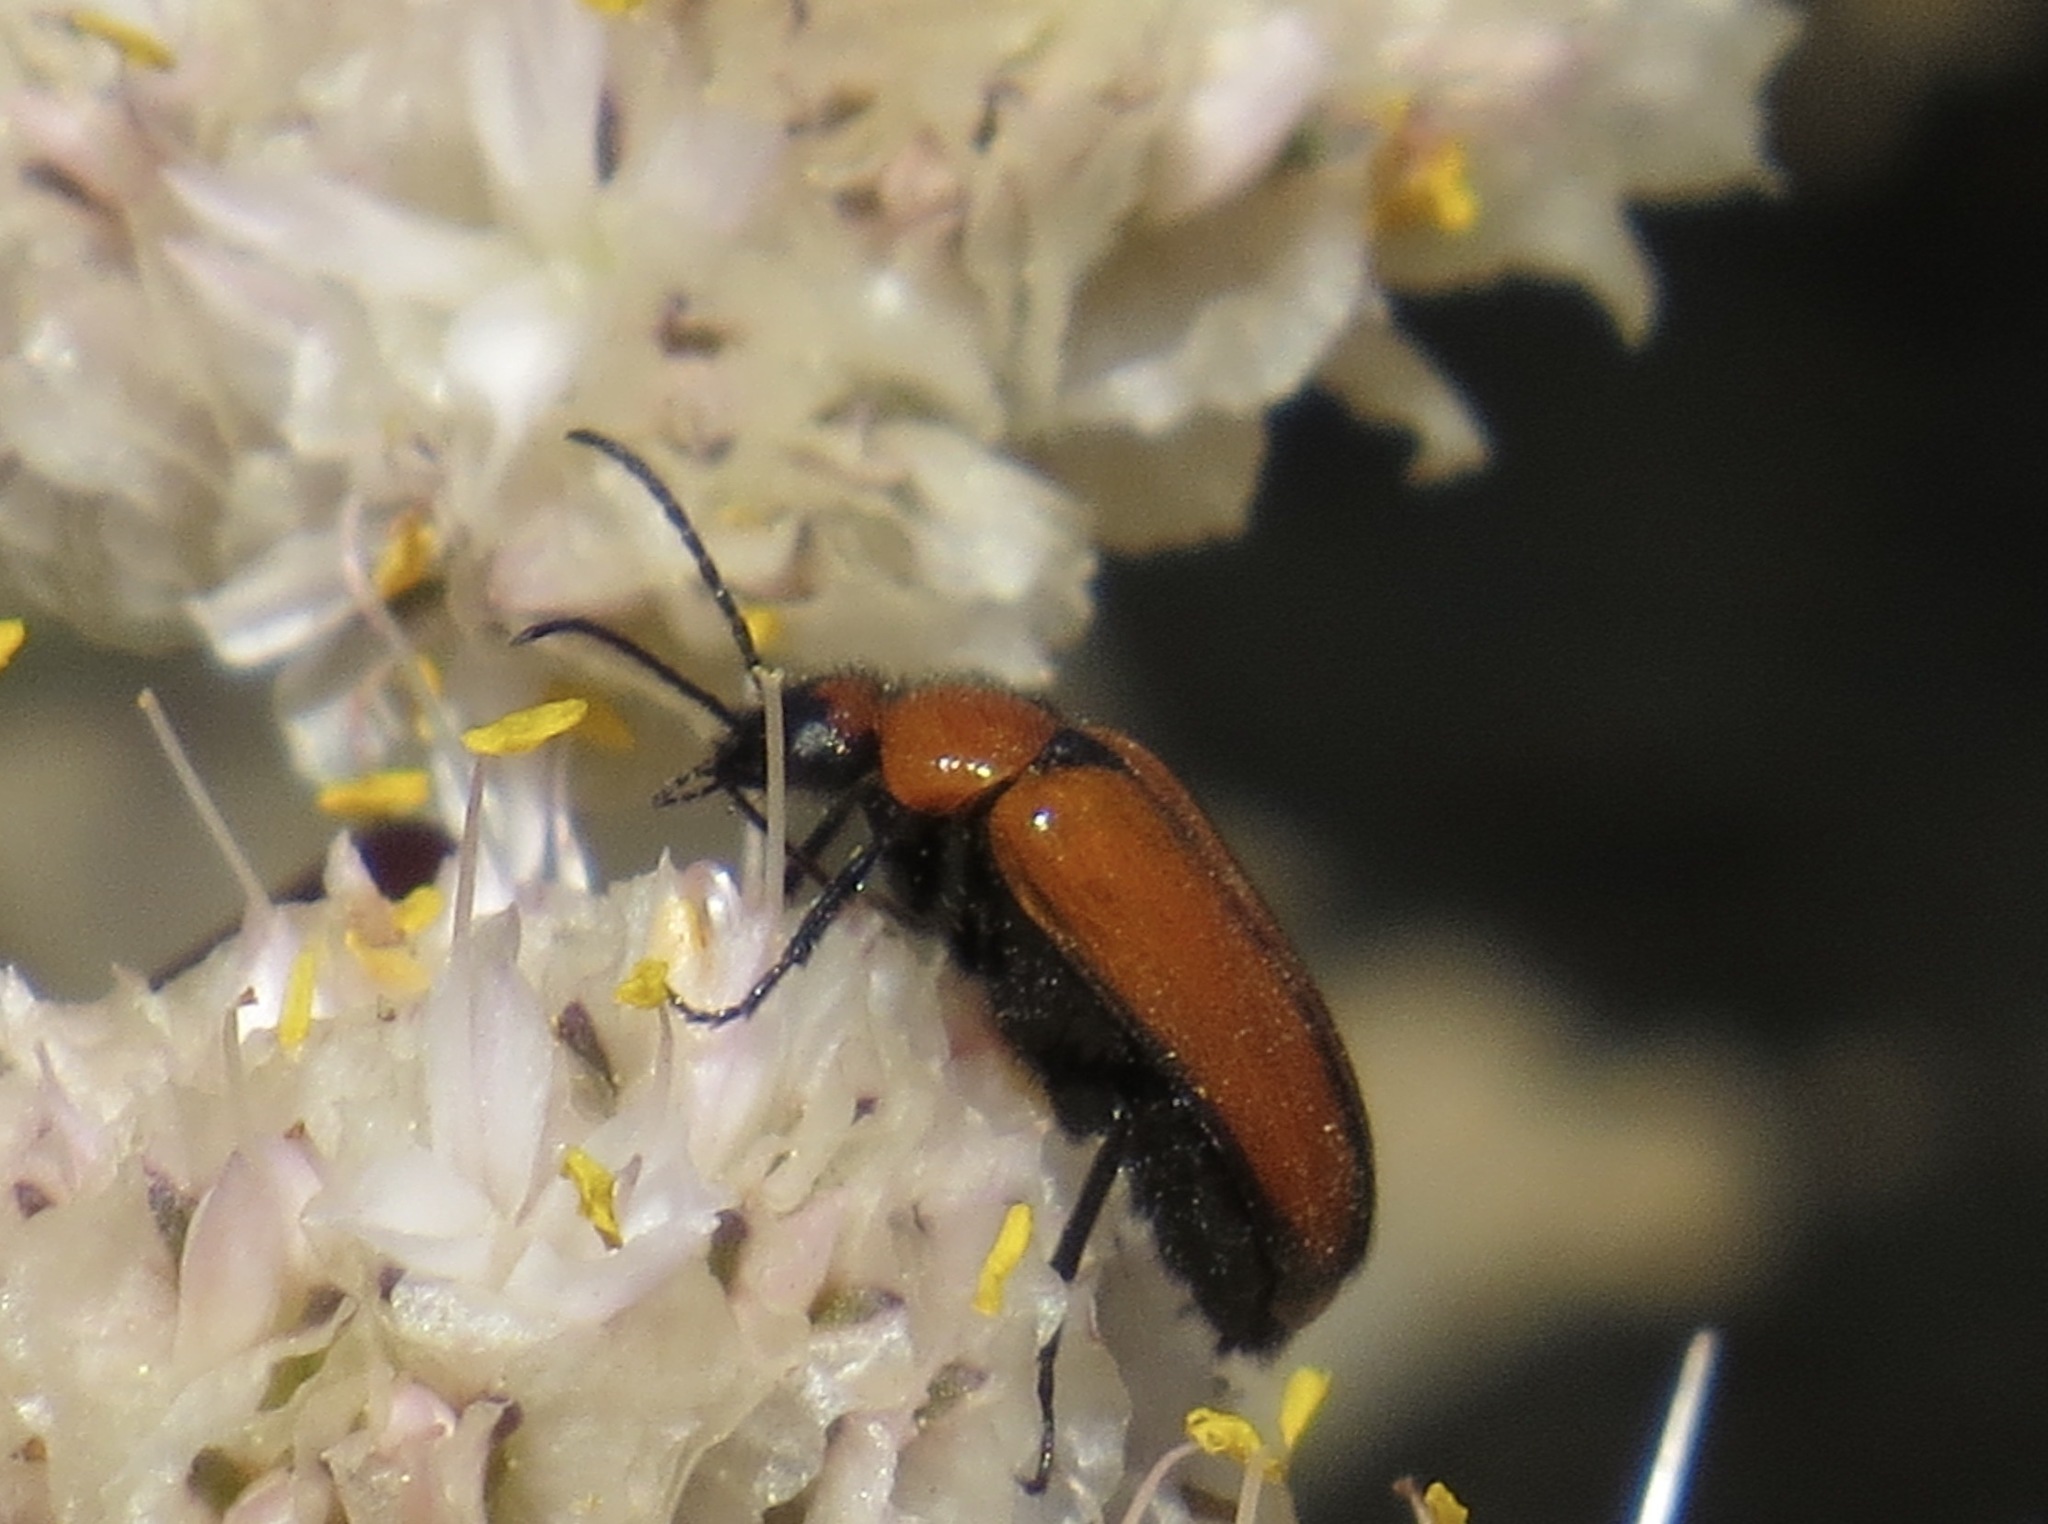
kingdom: Animalia
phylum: Arthropoda
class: Insecta
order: Coleoptera
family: Meloidae
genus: Nemognatha
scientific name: Nemognatha scutellaris
